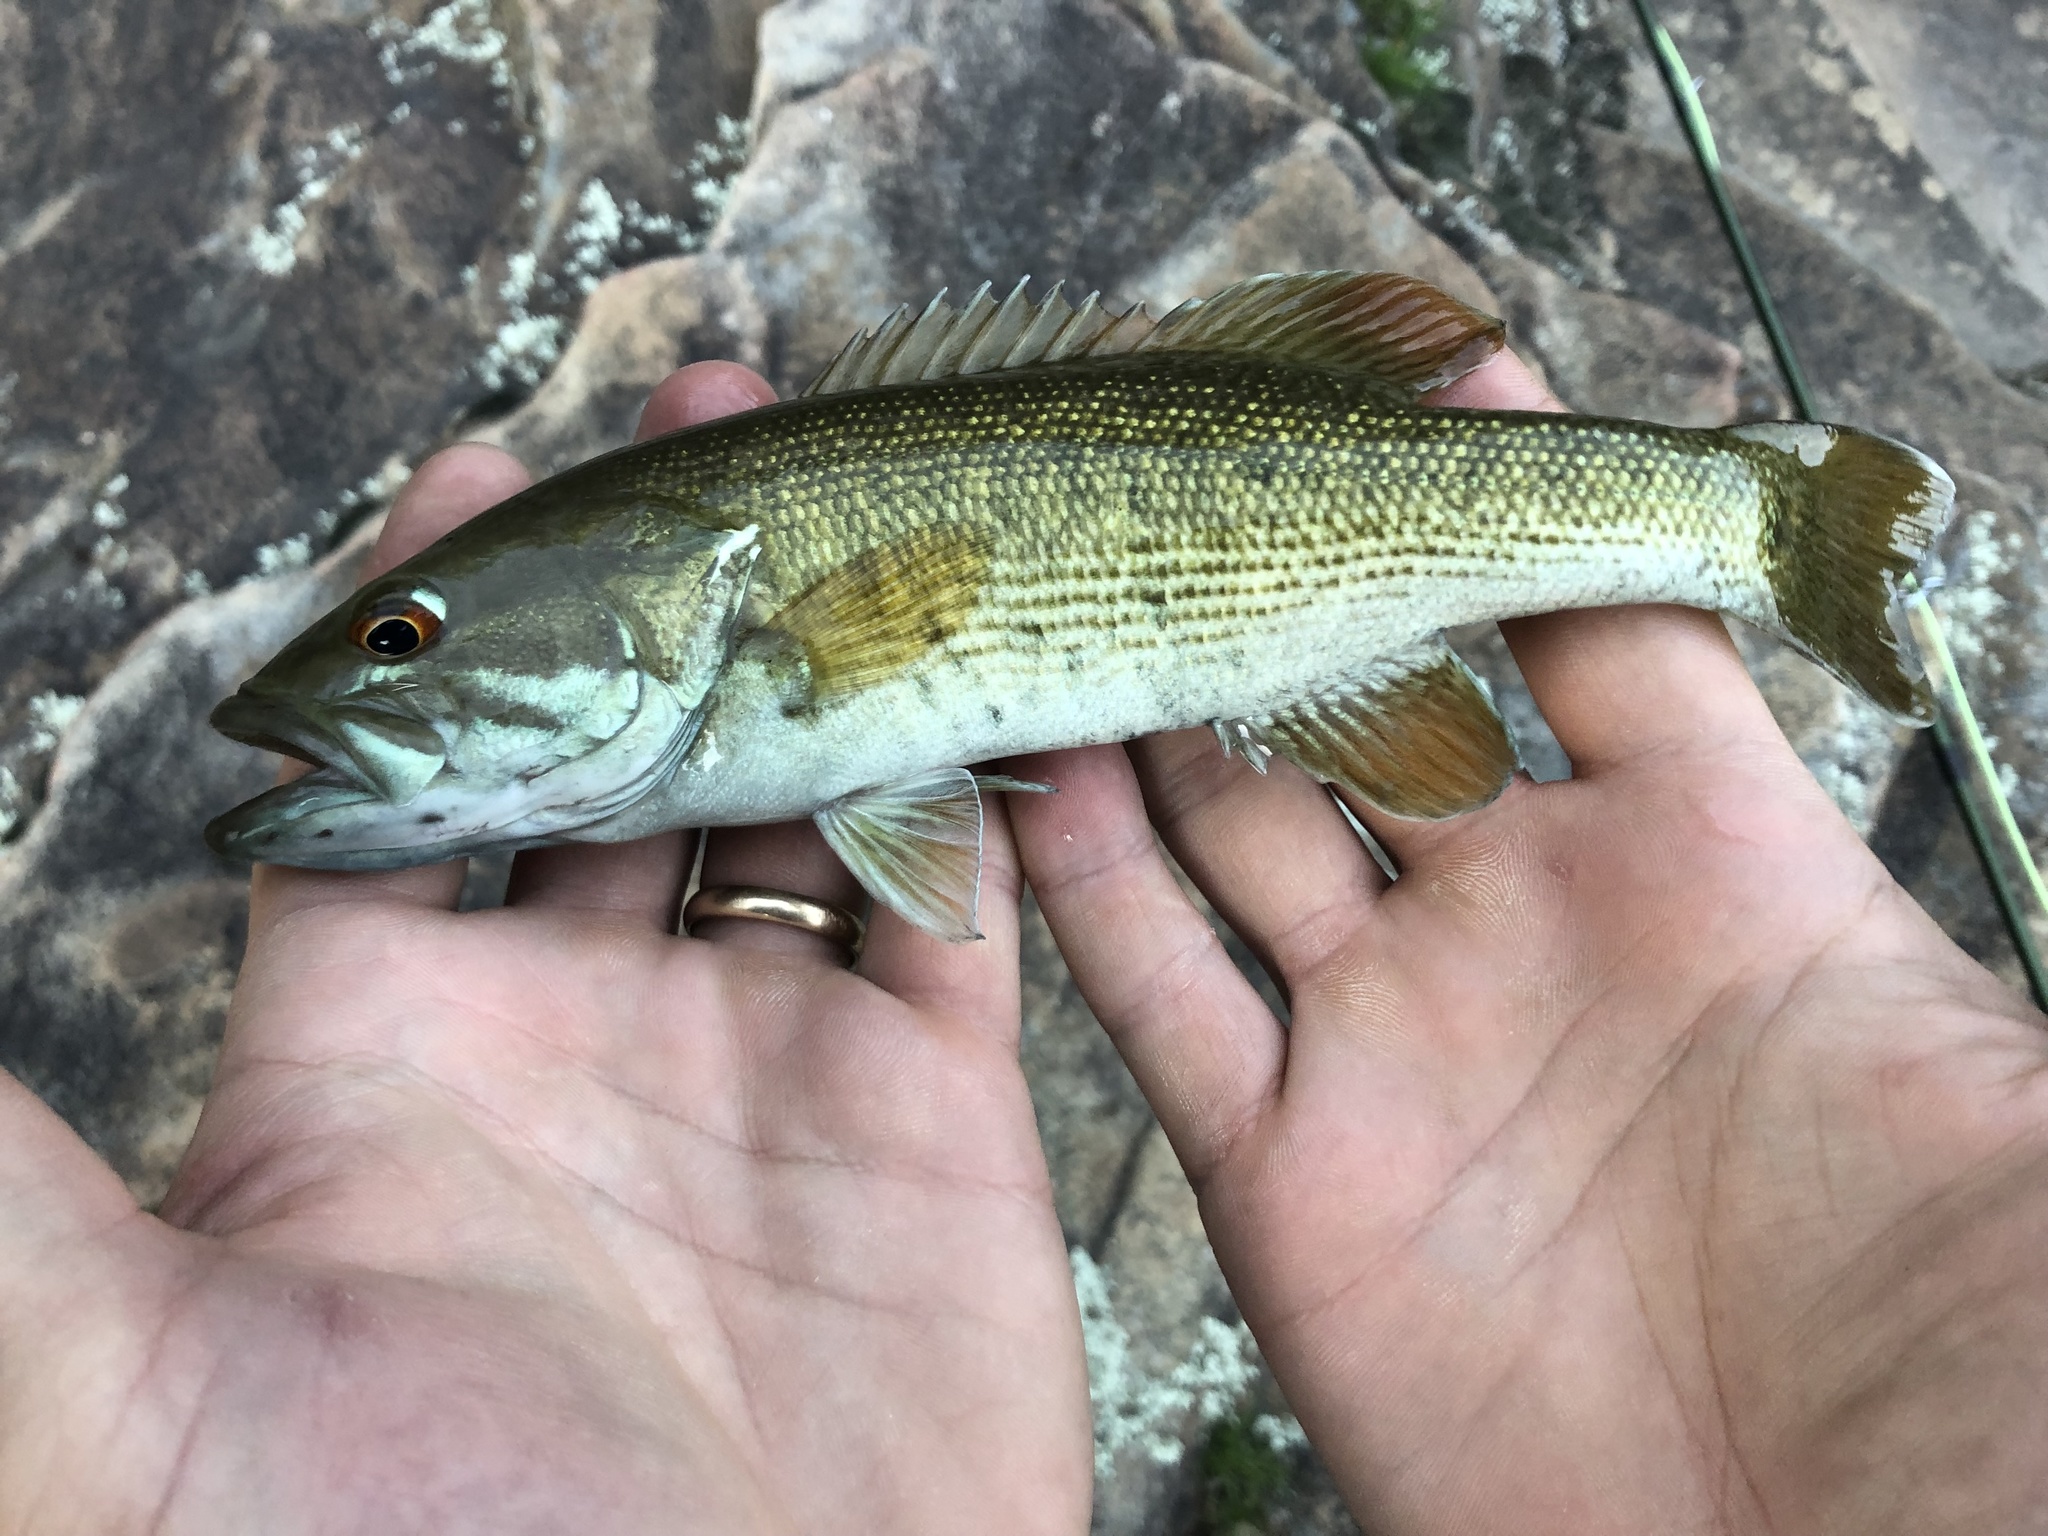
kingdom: Animalia
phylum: Chordata
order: Perciformes
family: Centrarchidae
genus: Micropterus
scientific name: Micropterus coosae
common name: Redeye bass
